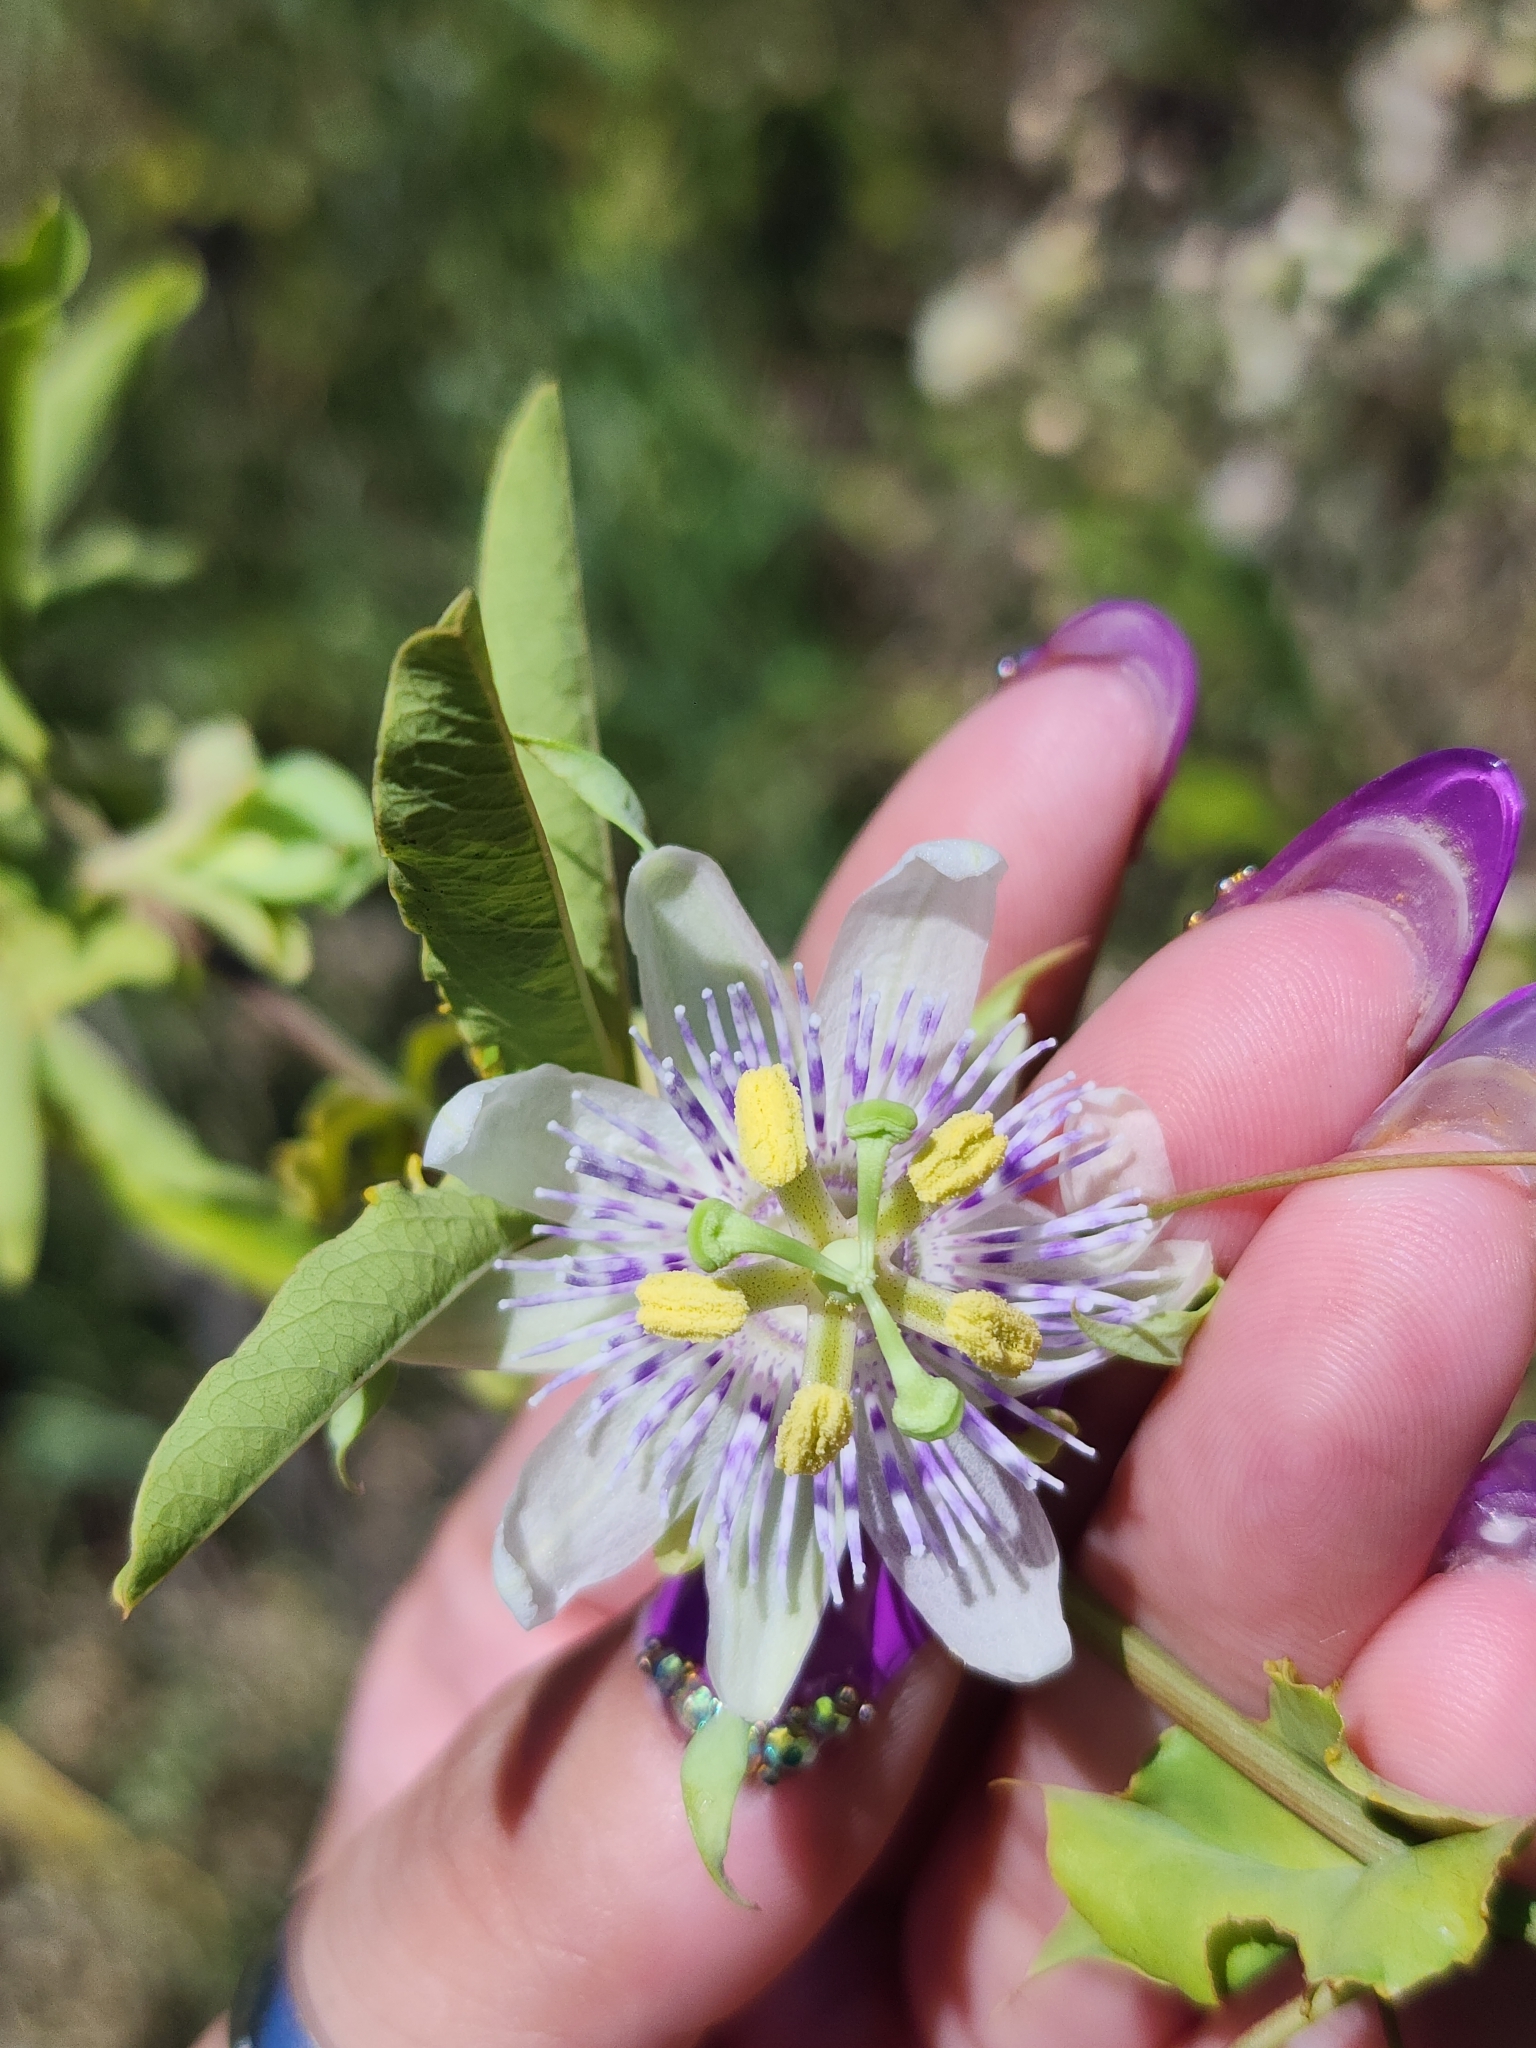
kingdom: Plantae
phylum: Tracheophyta
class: Magnoliopsida
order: Malpighiales
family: Passifloraceae
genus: Passiflora
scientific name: Passiflora tucumanensis
